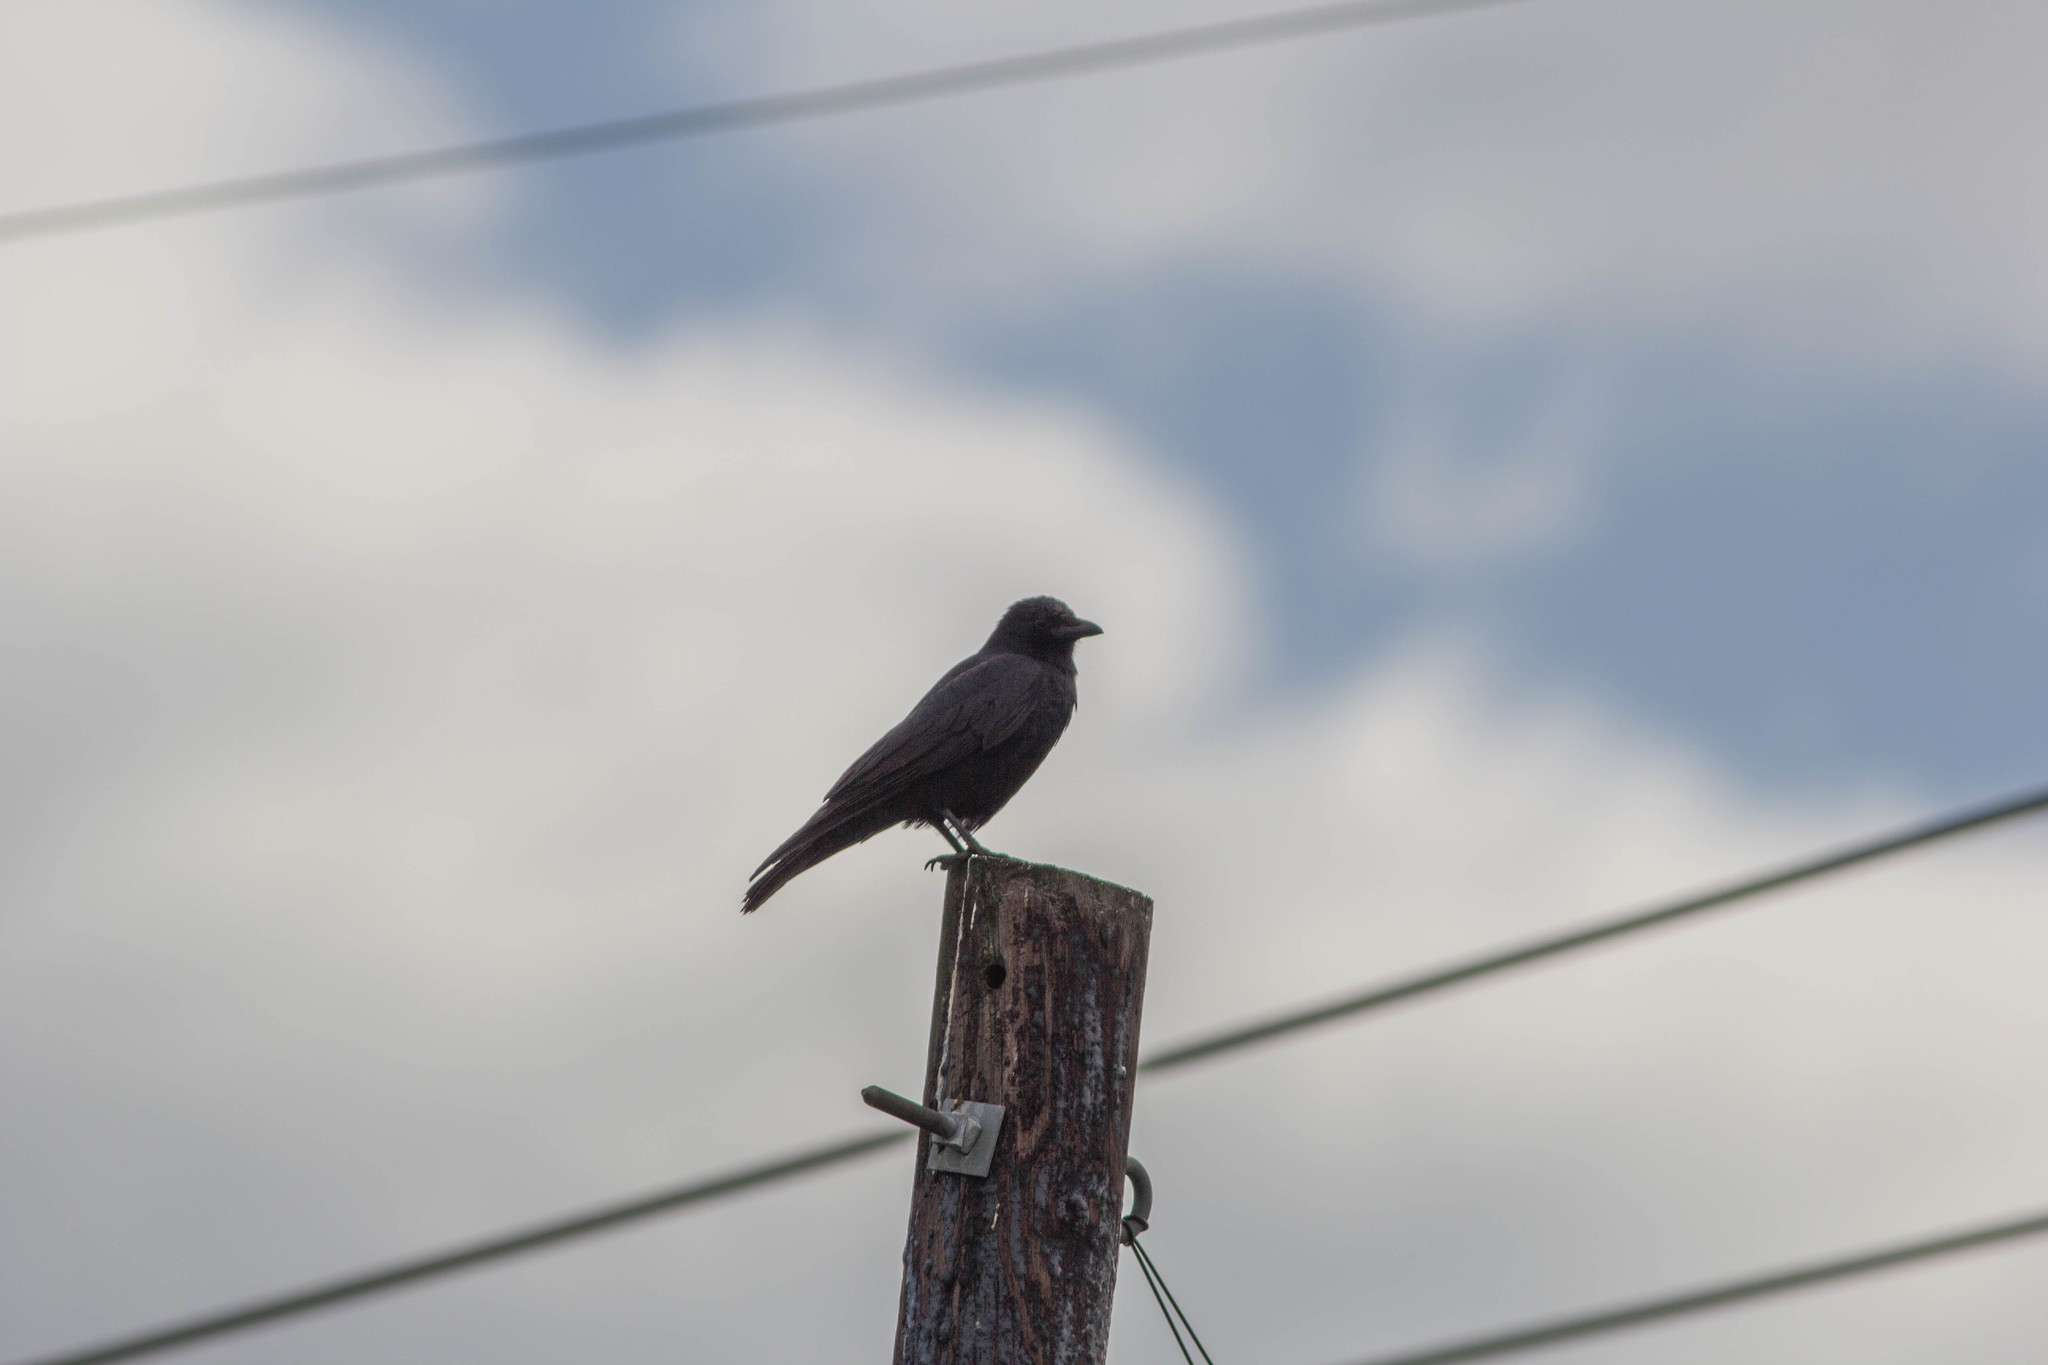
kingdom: Animalia
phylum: Chordata
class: Aves
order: Passeriformes
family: Corvidae
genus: Corvus
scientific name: Corvus
